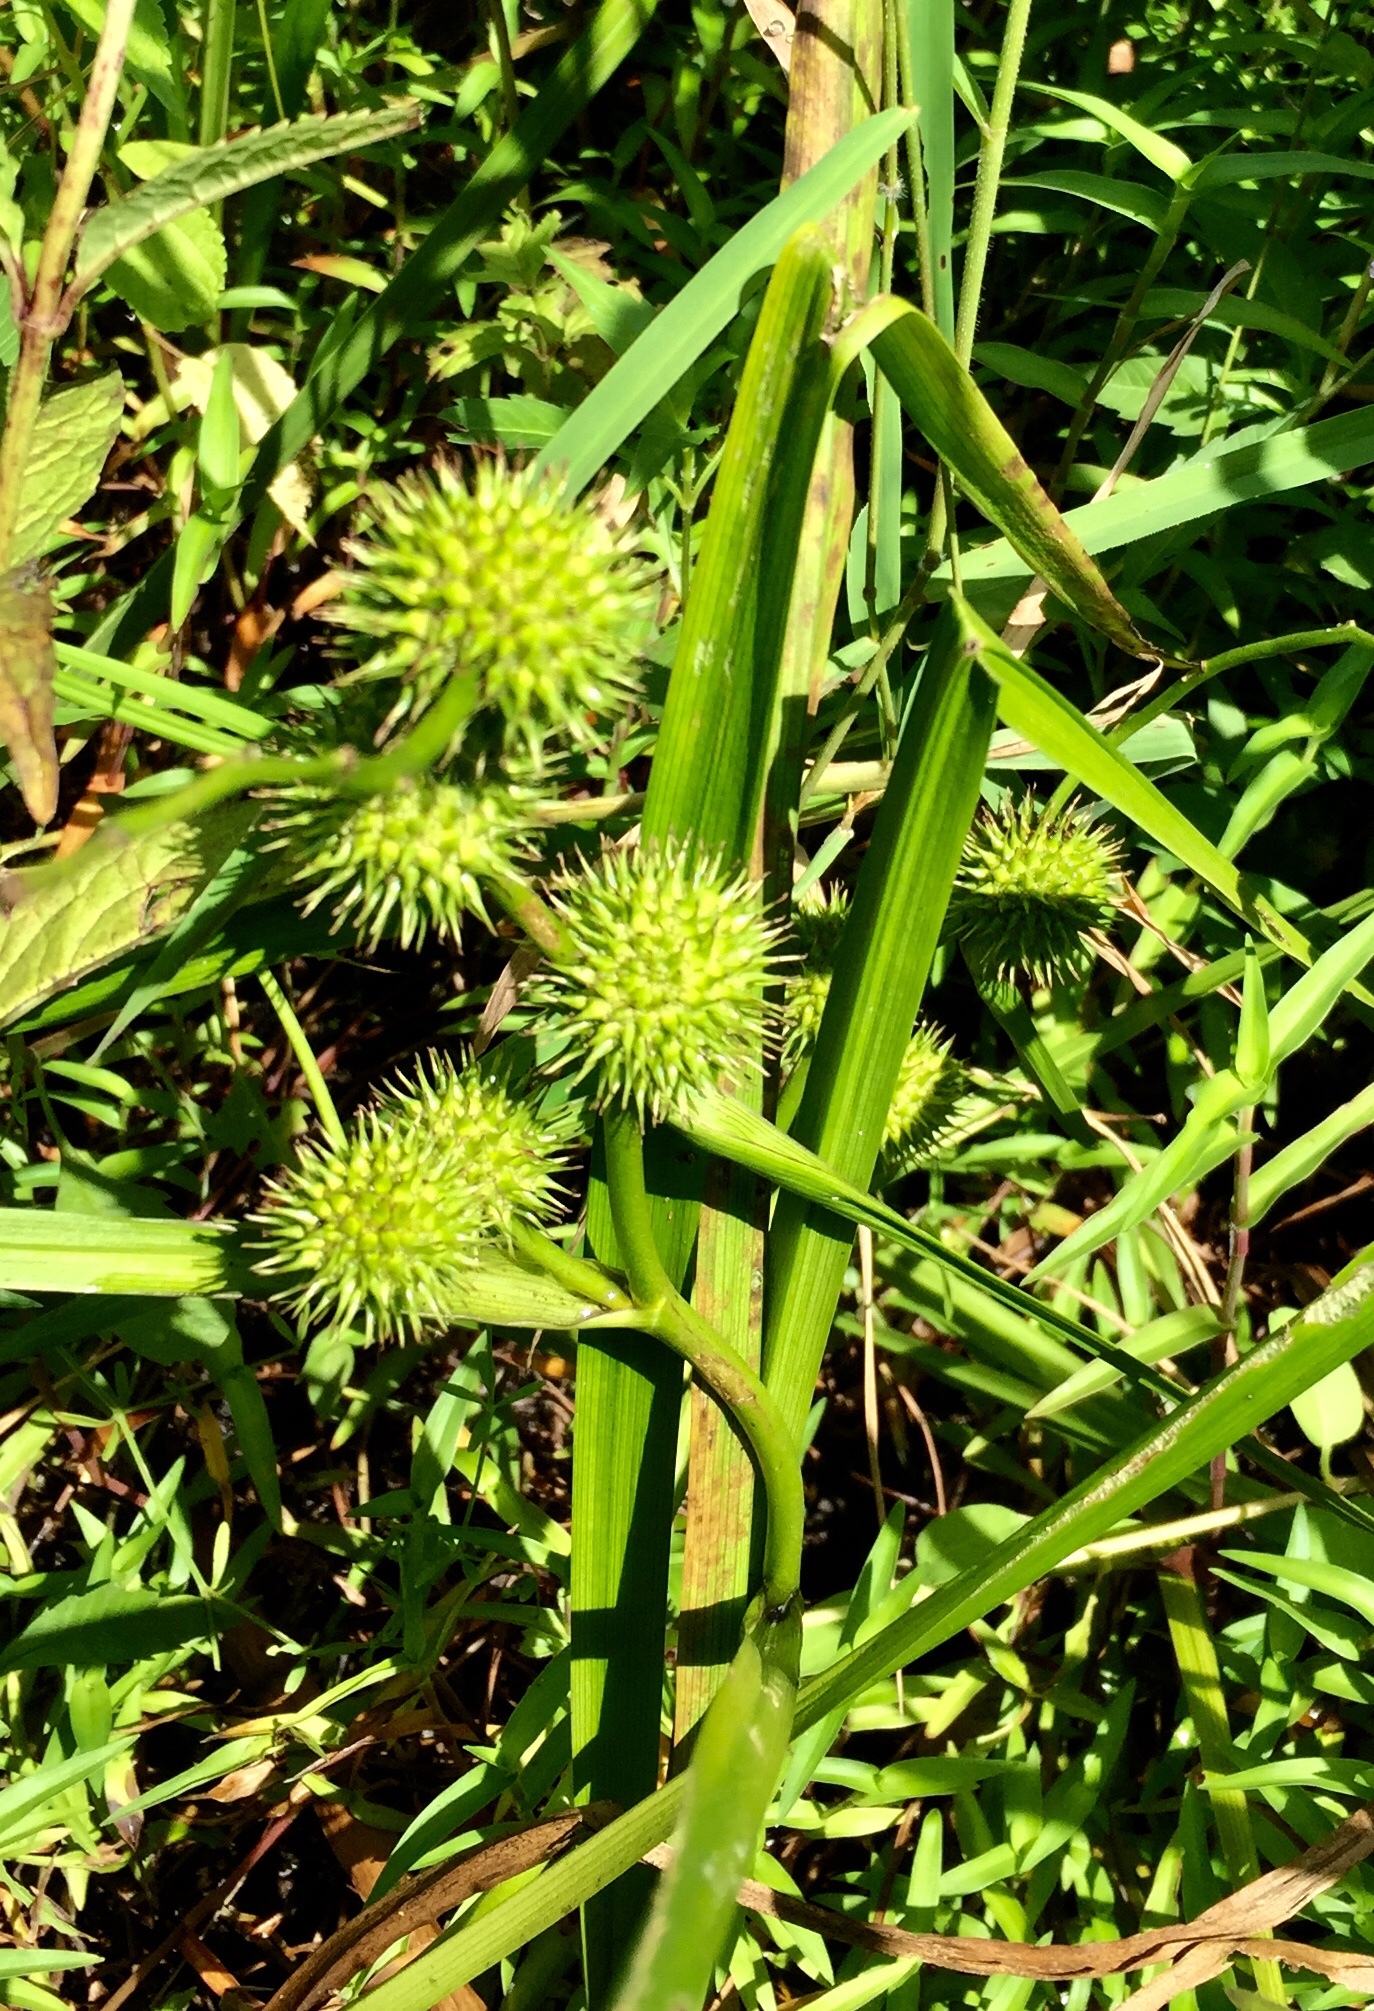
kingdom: Plantae
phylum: Tracheophyta
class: Liliopsida
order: Poales
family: Typhaceae
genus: Sparganium
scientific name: Sparganium americanum
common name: American burreed
